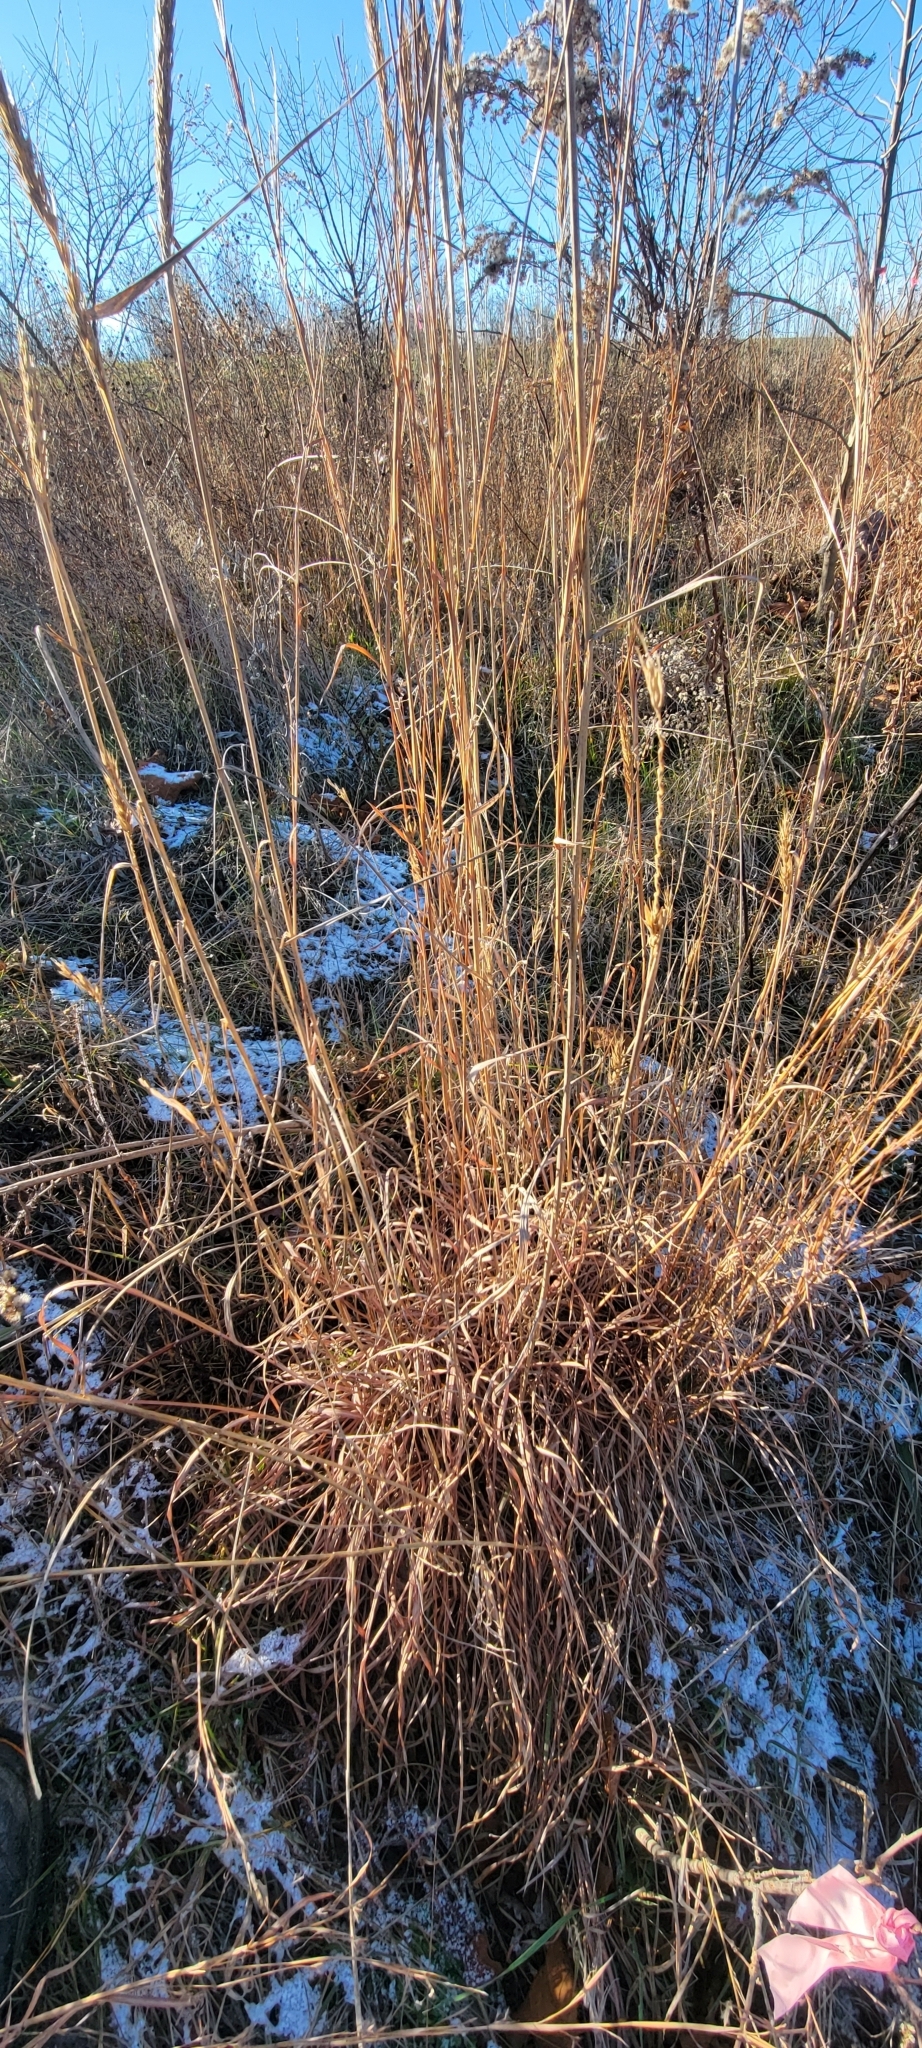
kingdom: Plantae
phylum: Tracheophyta
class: Liliopsida
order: Poales
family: Poaceae
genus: Schizachyrium
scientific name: Schizachyrium scoparium
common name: Little bluestem
